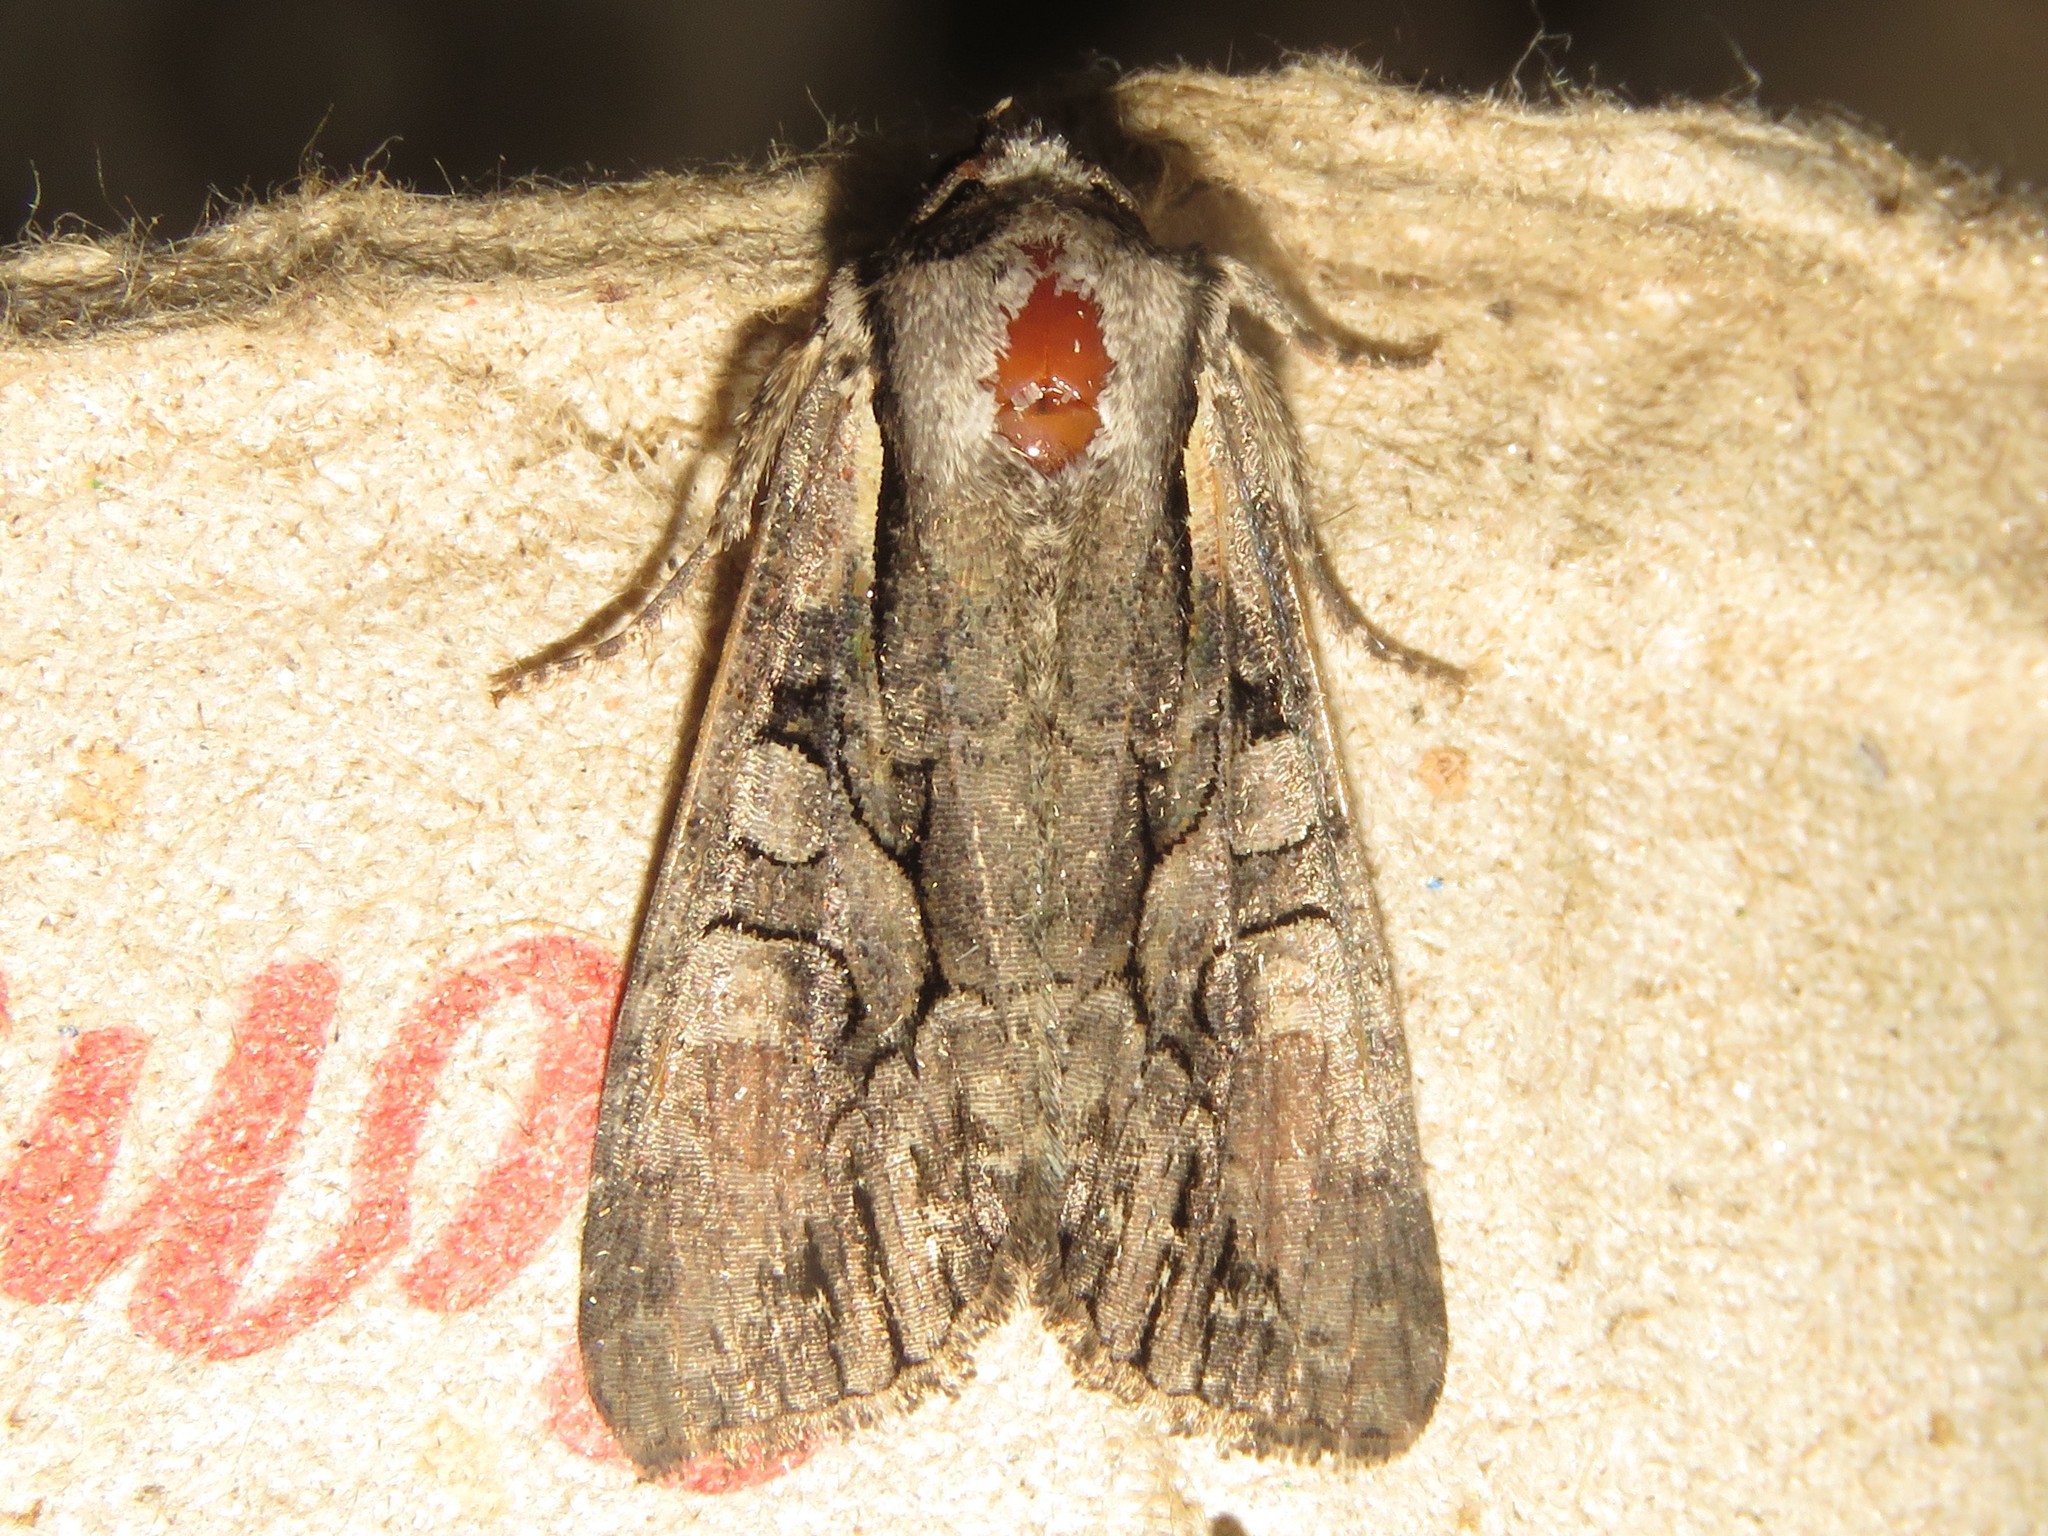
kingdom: Animalia
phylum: Arthropoda
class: Insecta
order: Lepidoptera
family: Noctuidae
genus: Lacanobia
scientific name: Lacanobia subjuncta
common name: Speckled cutworm moth
